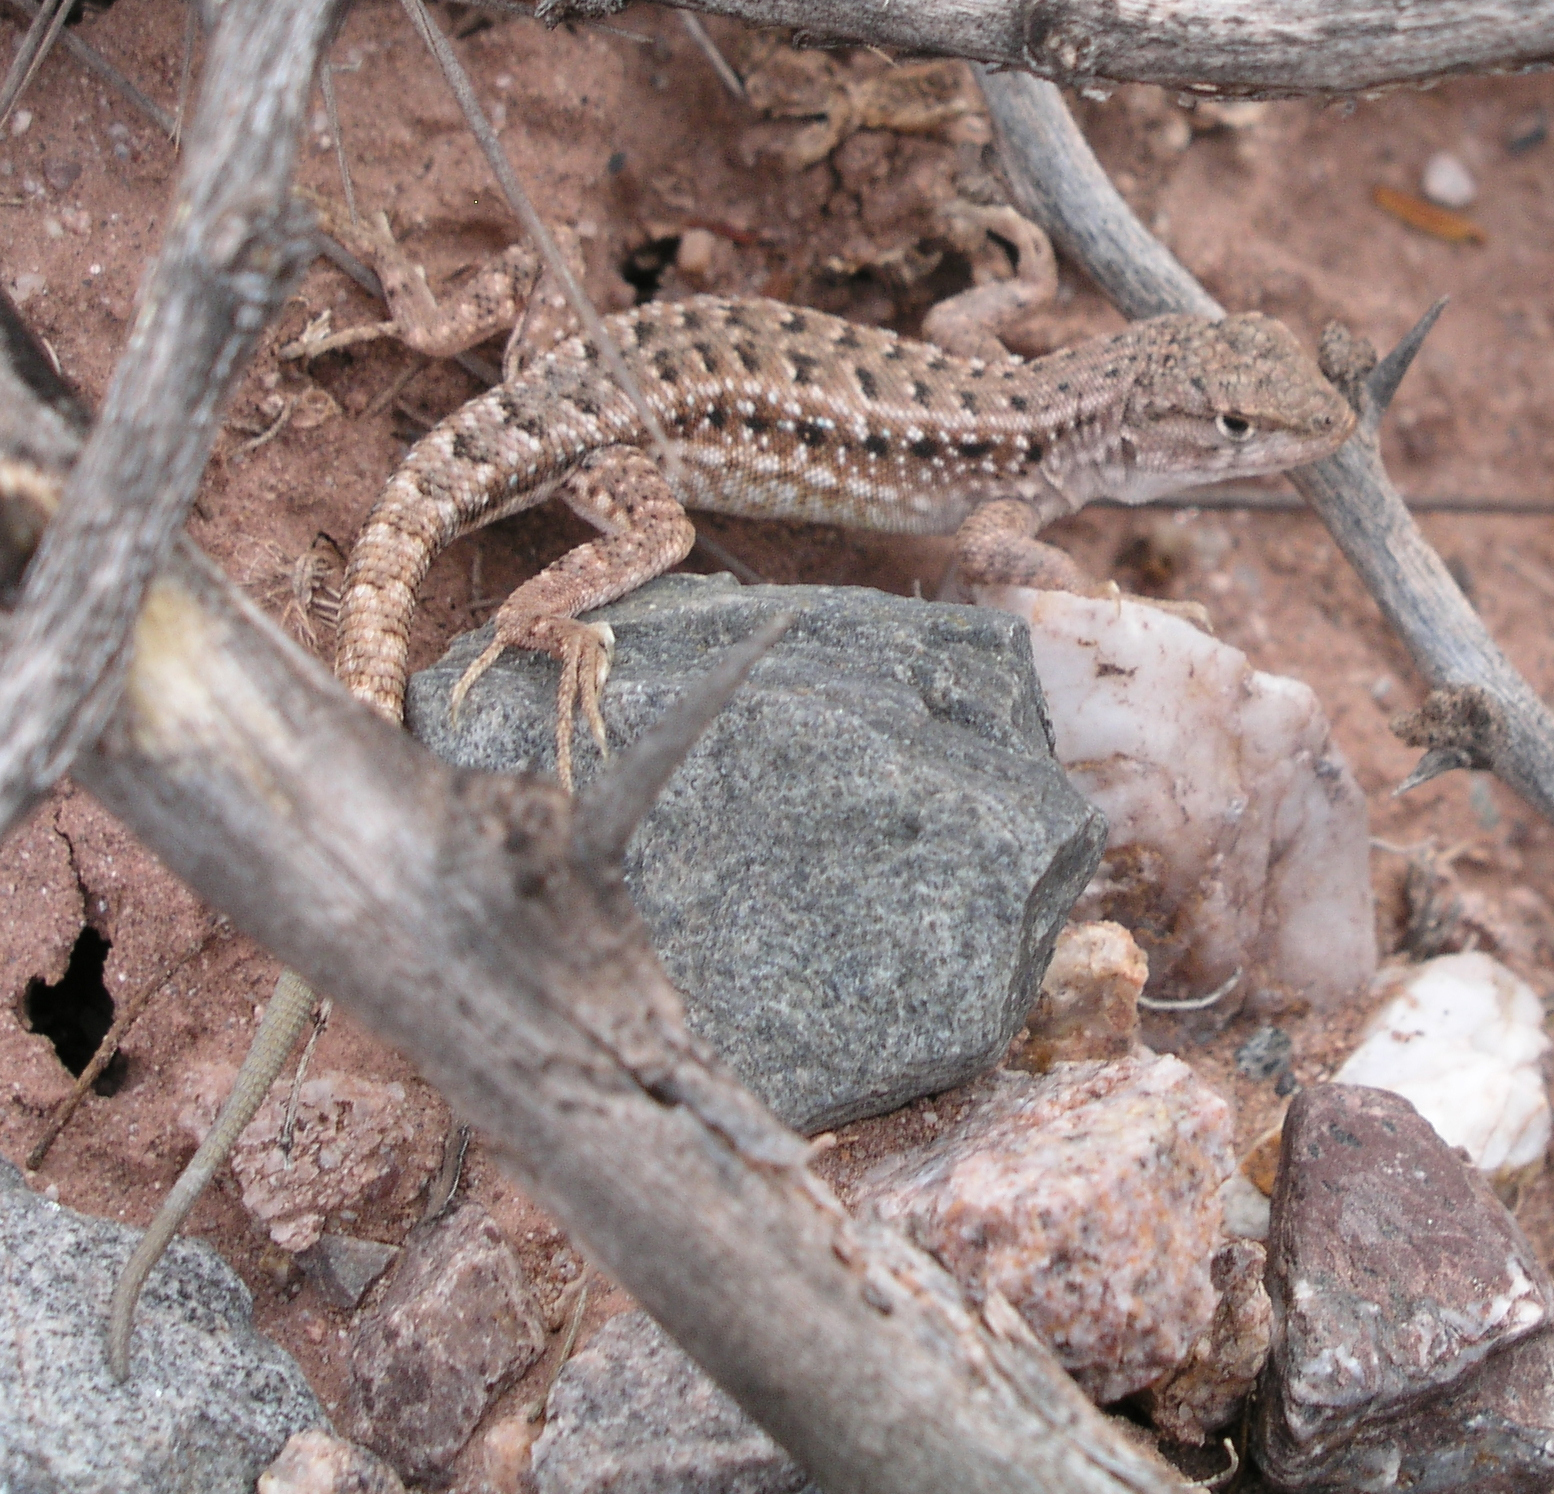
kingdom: Animalia
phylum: Chordata
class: Squamata
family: Liolaemidae
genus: Liolaemus
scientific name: Liolaemus quilmes
